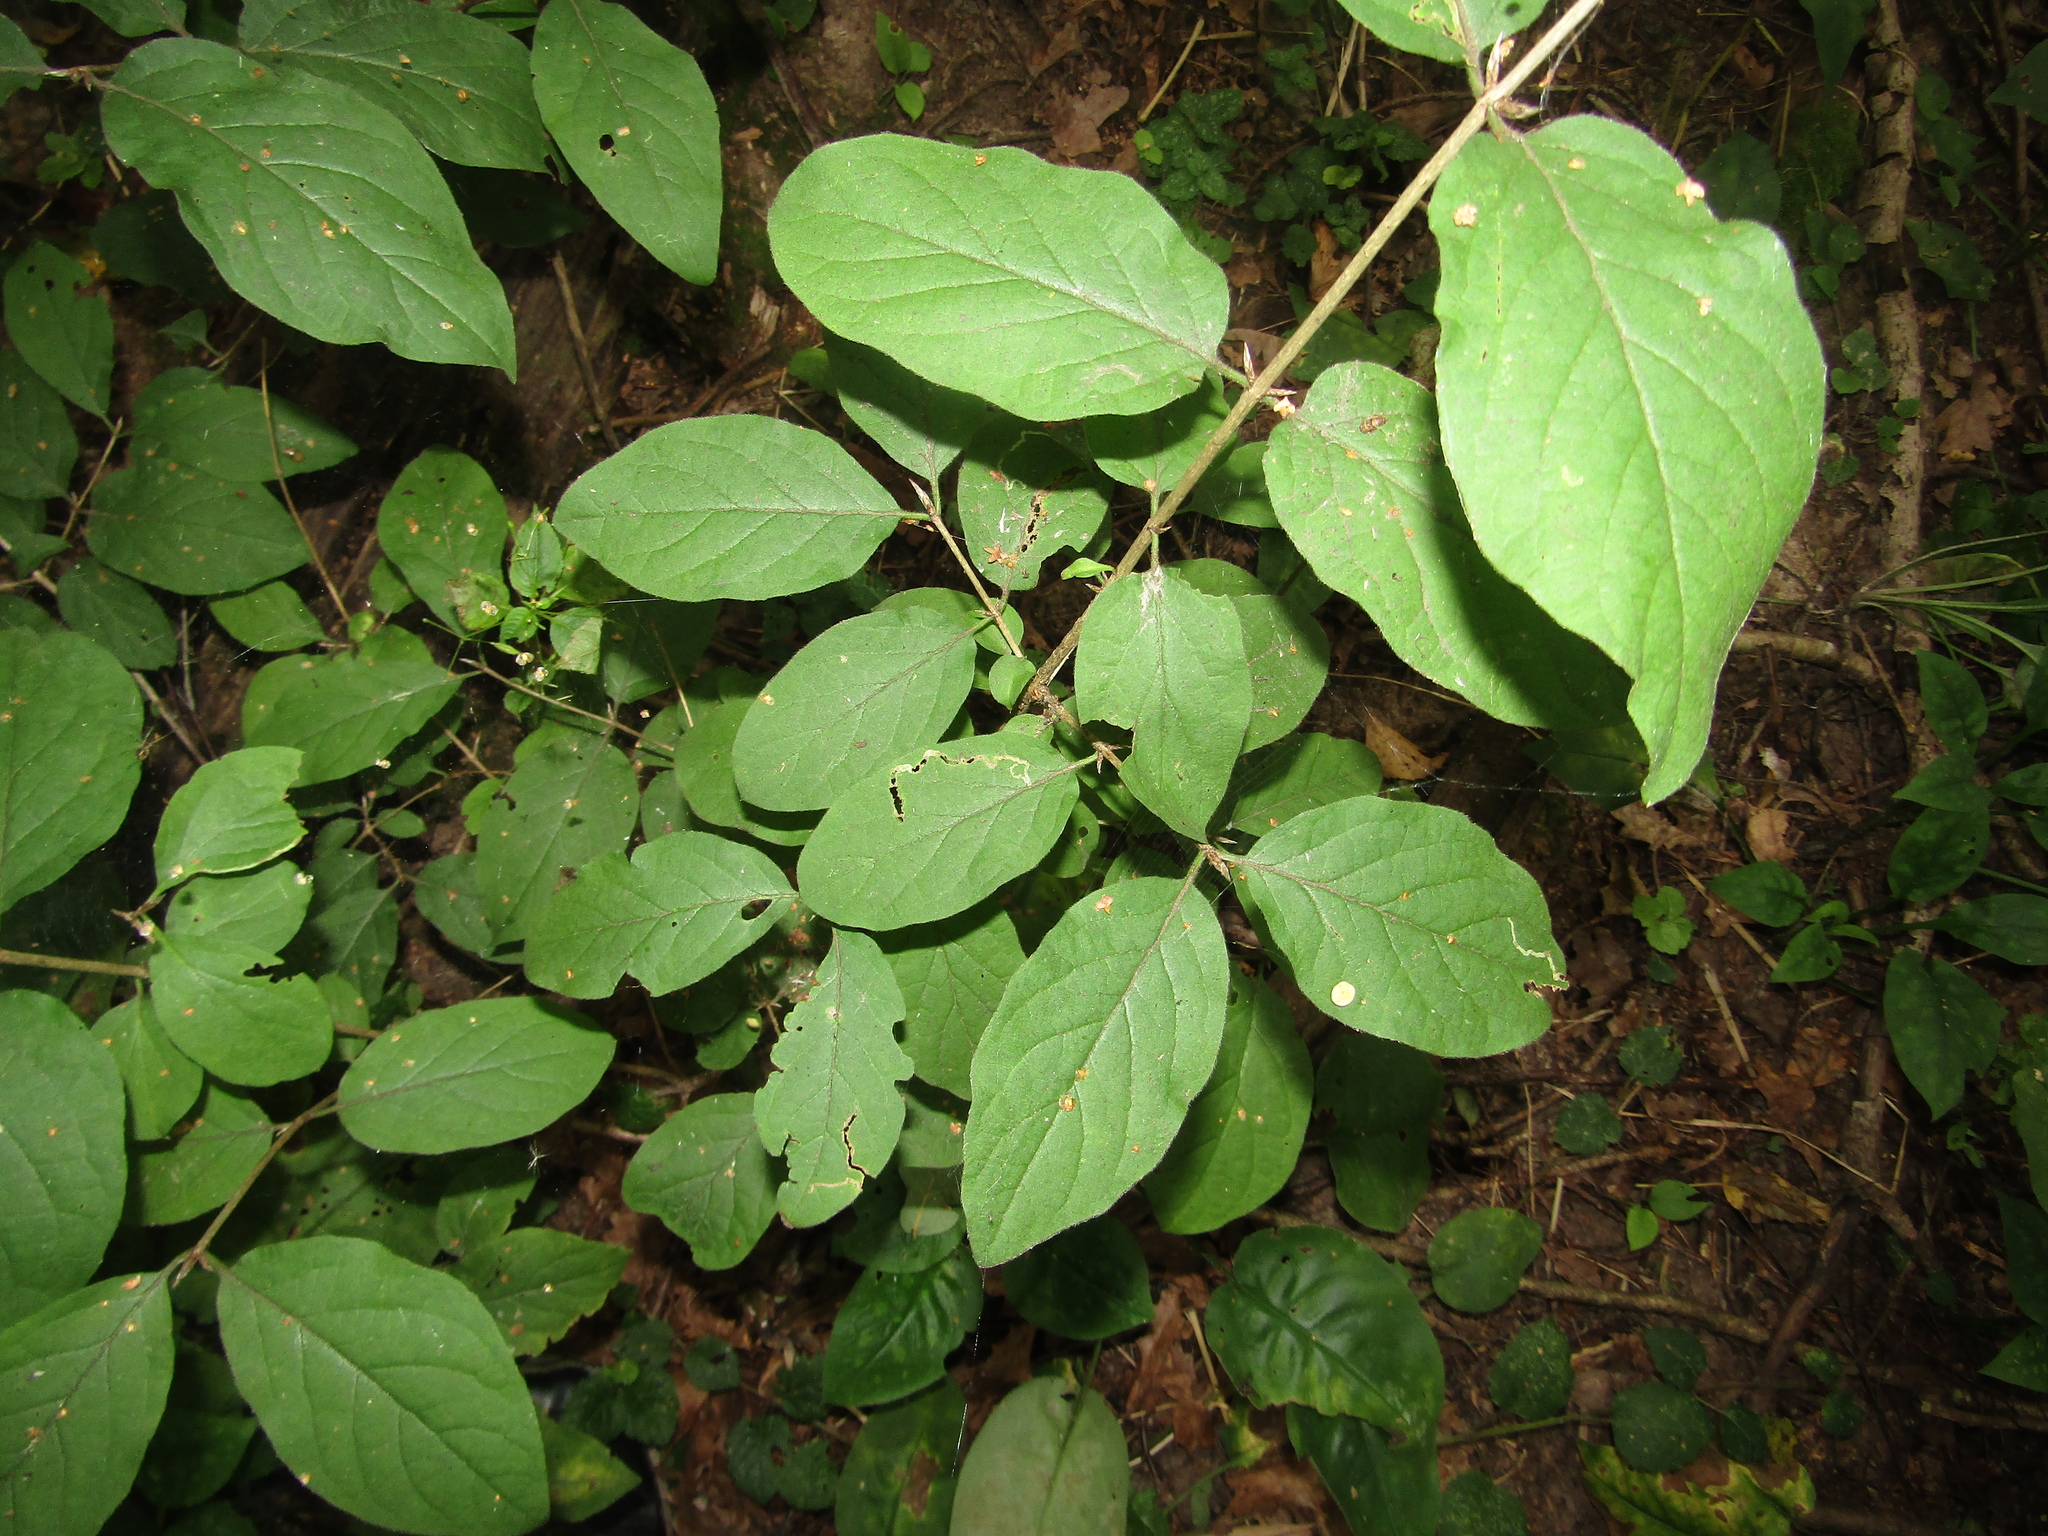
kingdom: Plantae
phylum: Tracheophyta
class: Magnoliopsida
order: Dipsacales
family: Caprifoliaceae
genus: Lonicera
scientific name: Lonicera xylosteum
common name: Fly honeysuckle
